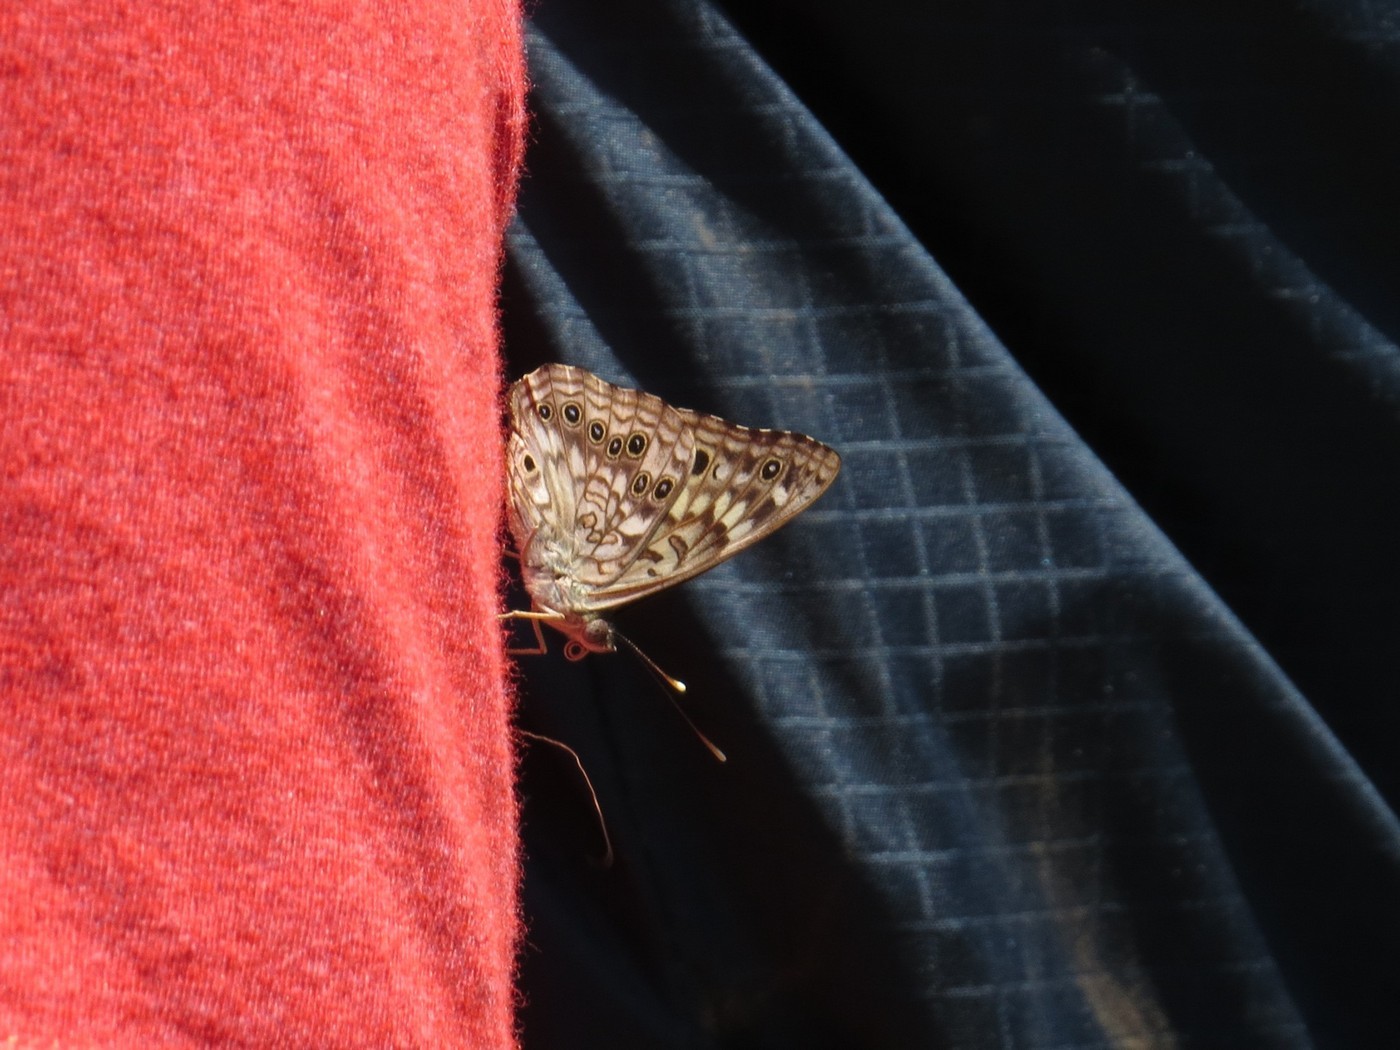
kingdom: Animalia
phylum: Arthropoda
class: Insecta
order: Lepidoptera
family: Nymphalidae
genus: Asterocampa
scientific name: Asterocampa celtis
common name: Hackberry emperor
